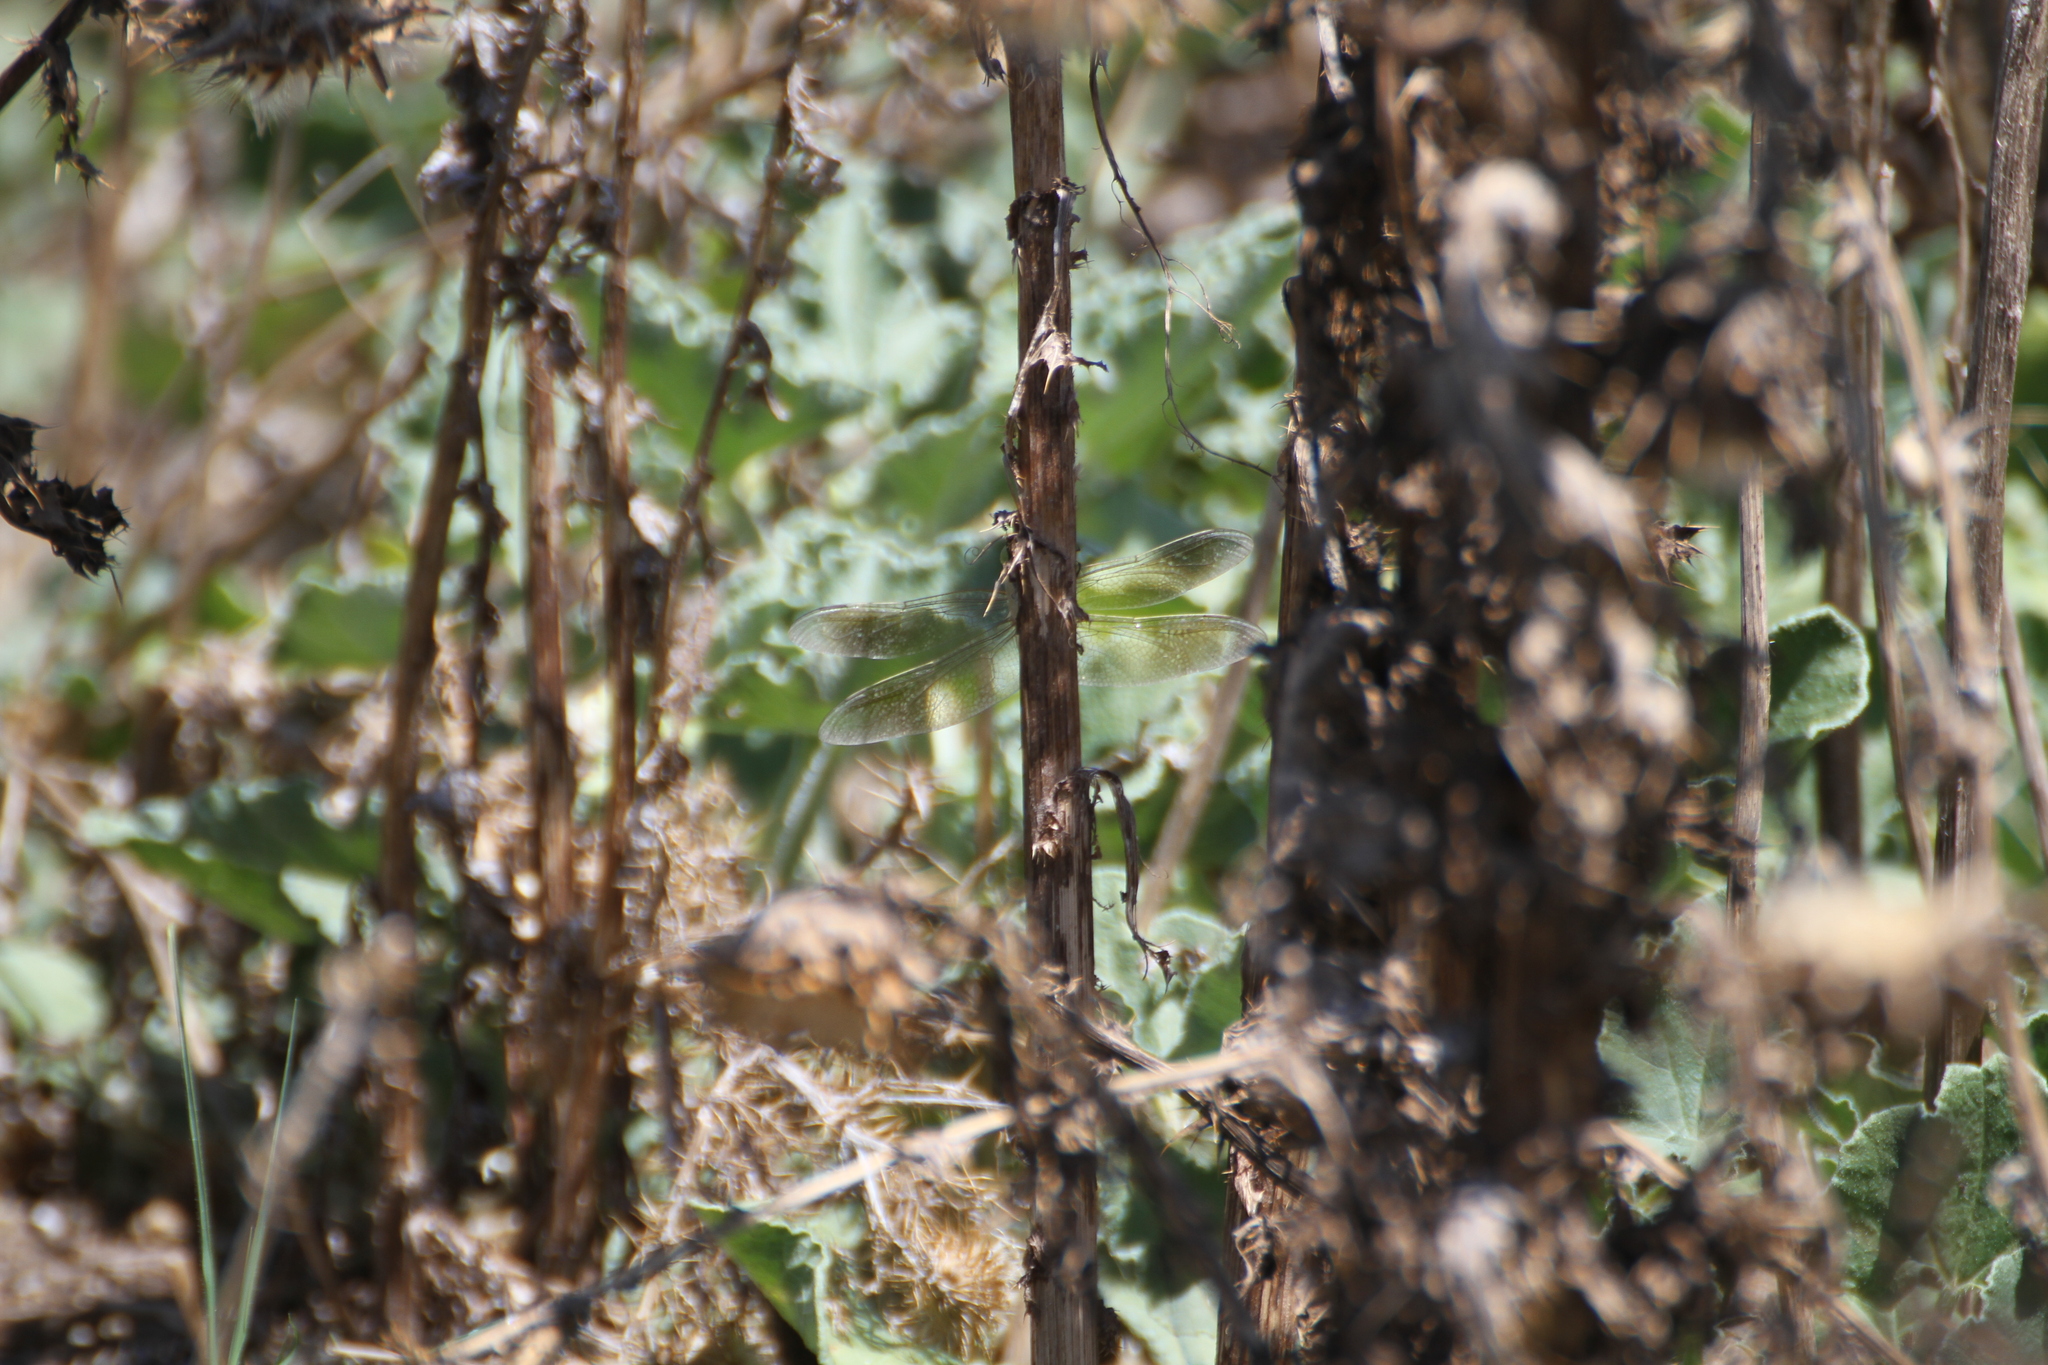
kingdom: Animalia
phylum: Arthropoda
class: Insecta
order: Odonata
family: Aeshnidae
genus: Anax
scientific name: Anax parthenope
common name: Lesser emperor
